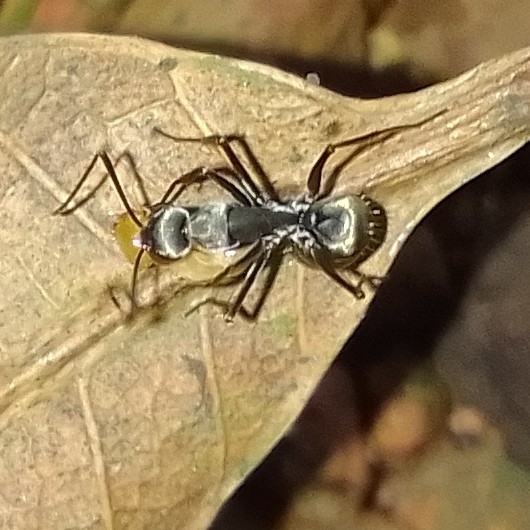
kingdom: Animalia
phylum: Arthropoda
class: Insecta
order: Hymenoptera
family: Formicidae
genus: Camponotus
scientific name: Camponotus parius
